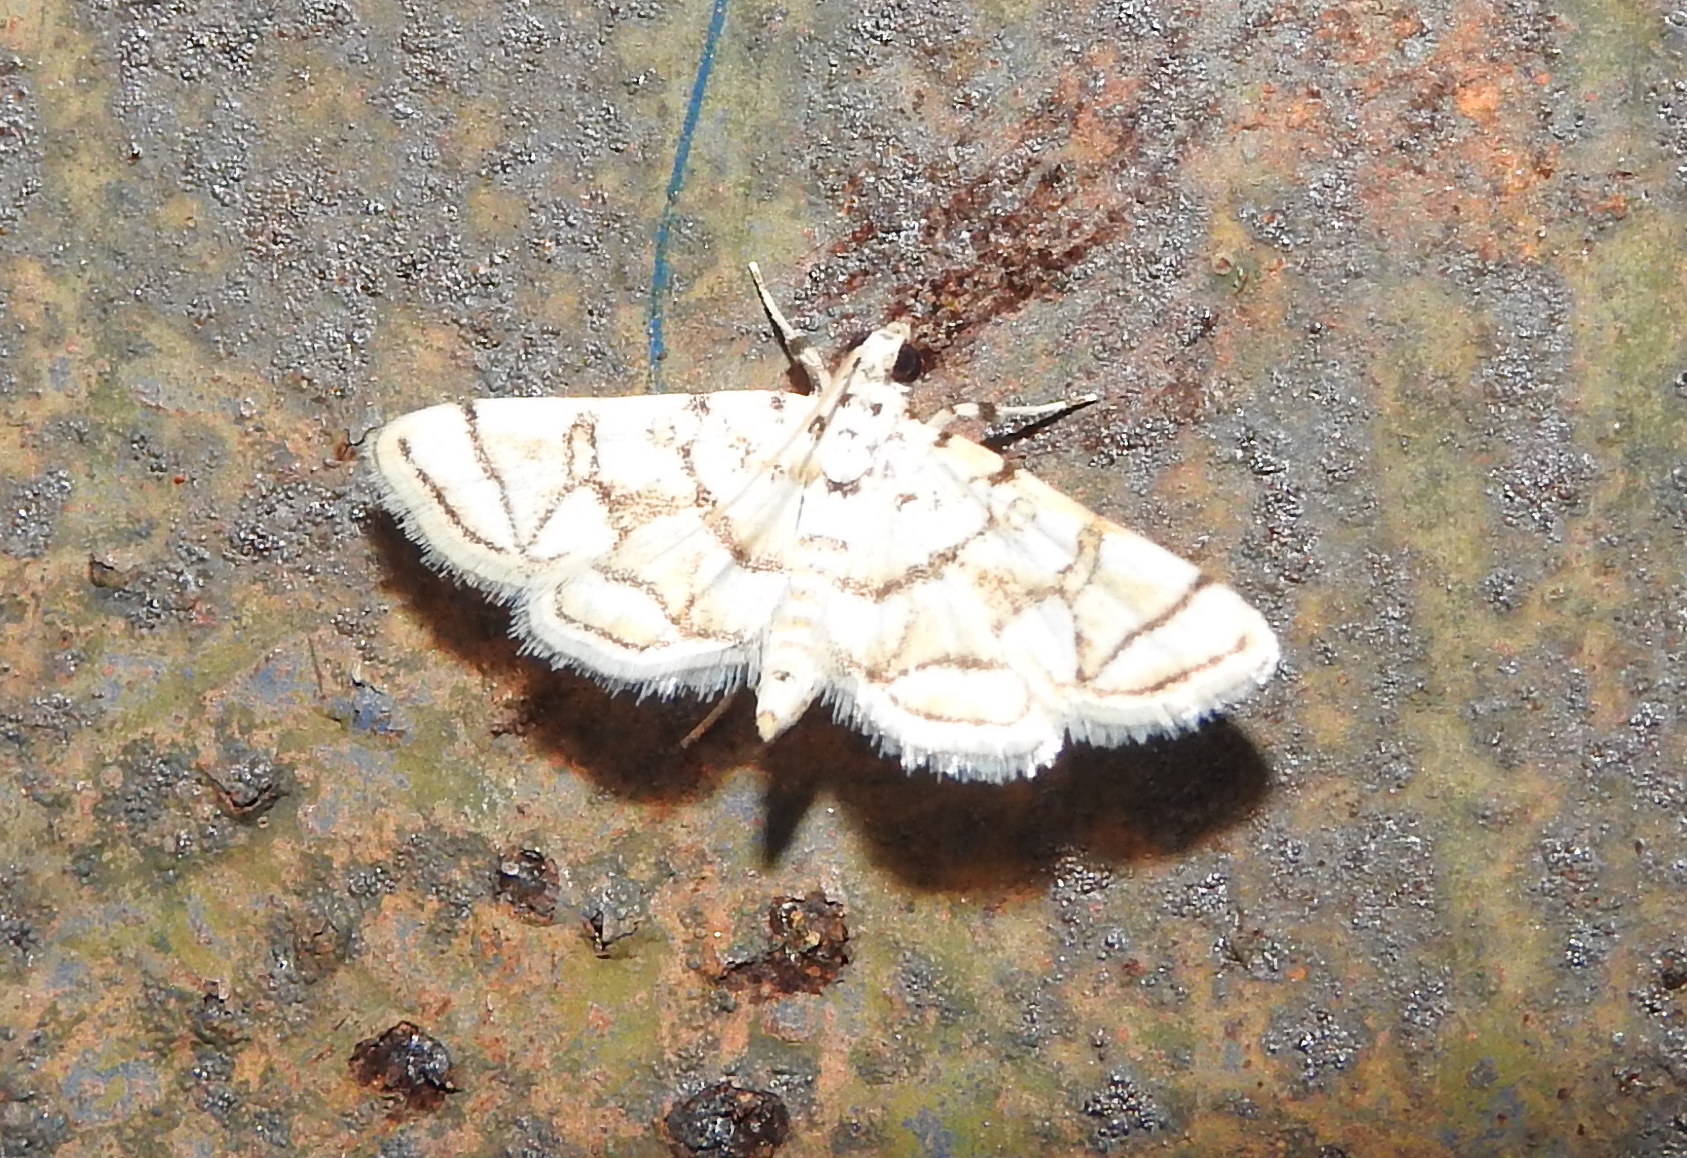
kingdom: Animalia
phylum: Arthropoda
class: Insecta
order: Lepidoptera
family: Crambidae
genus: Elophila
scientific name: Elophila
